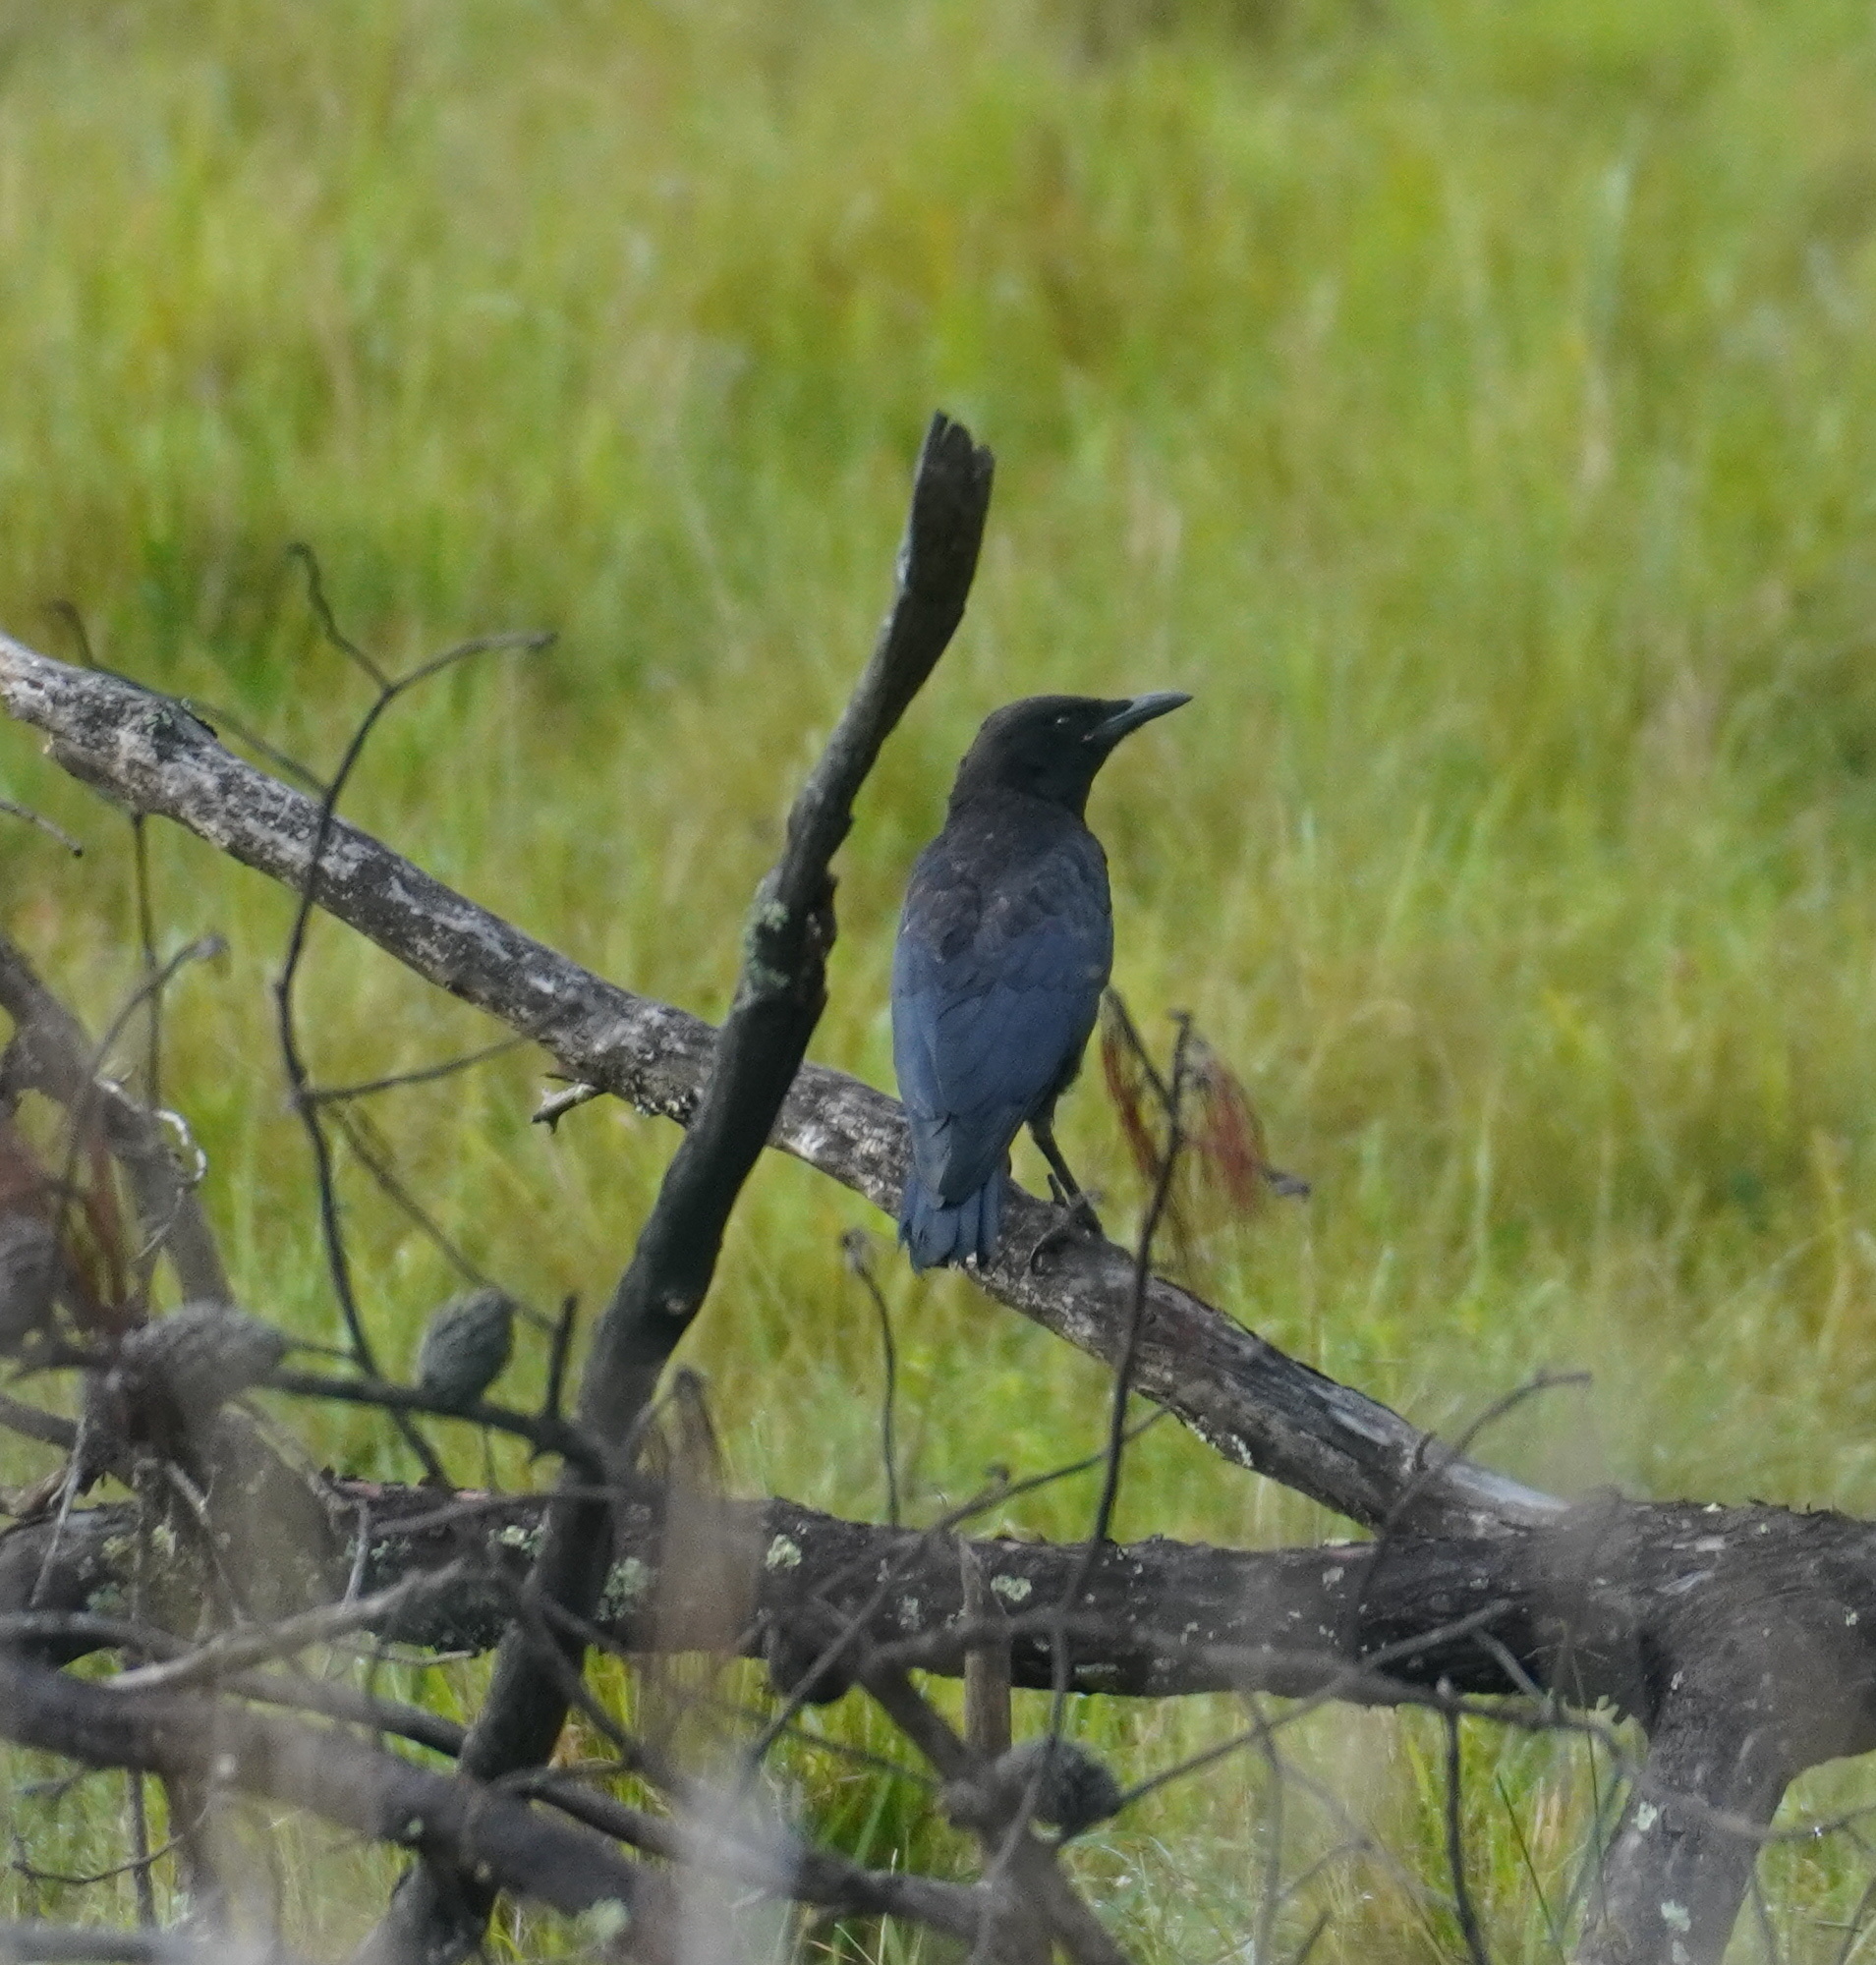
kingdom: Animalia
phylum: Chordata
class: Aves
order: Passeriformes
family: Corvidae
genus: Corvus
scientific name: Corvus capensis
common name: Cape crow
